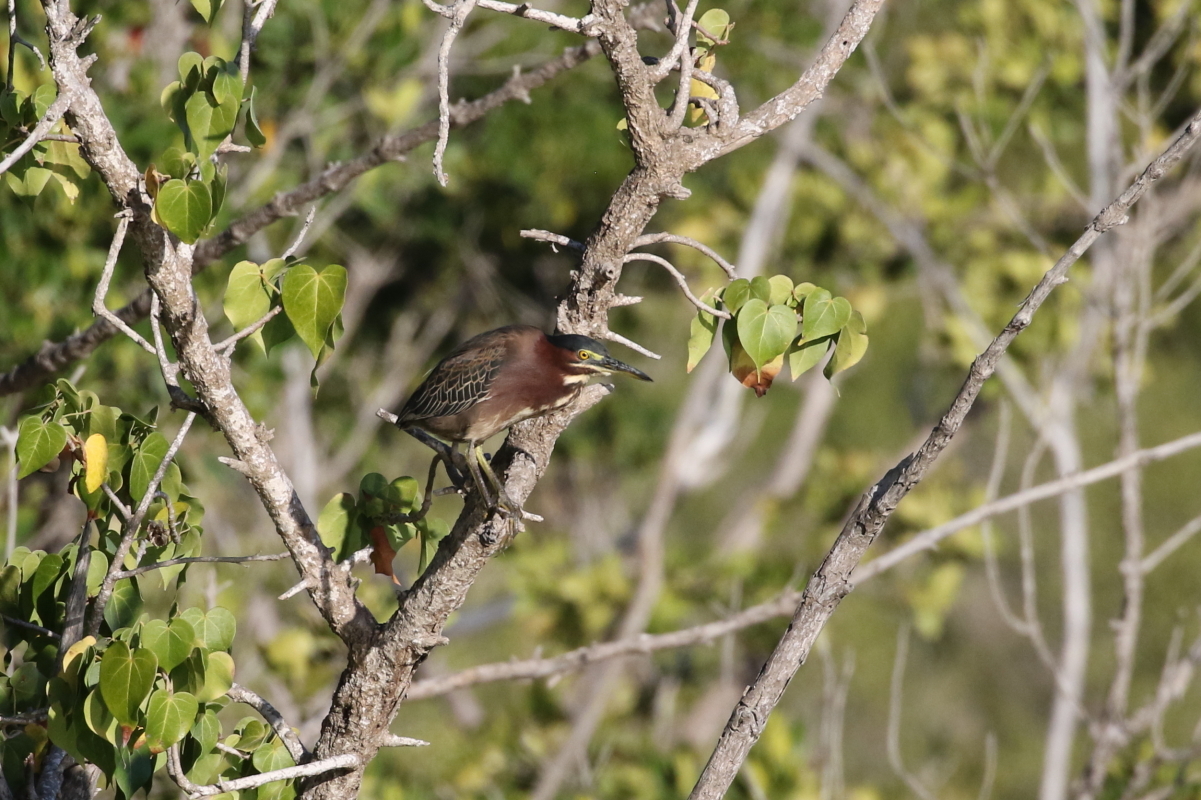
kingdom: Animalia
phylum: Chordata
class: Aves
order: Pelecaniformes
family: Ardeidae
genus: Butorides
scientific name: Butorides virescens
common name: Green heron
